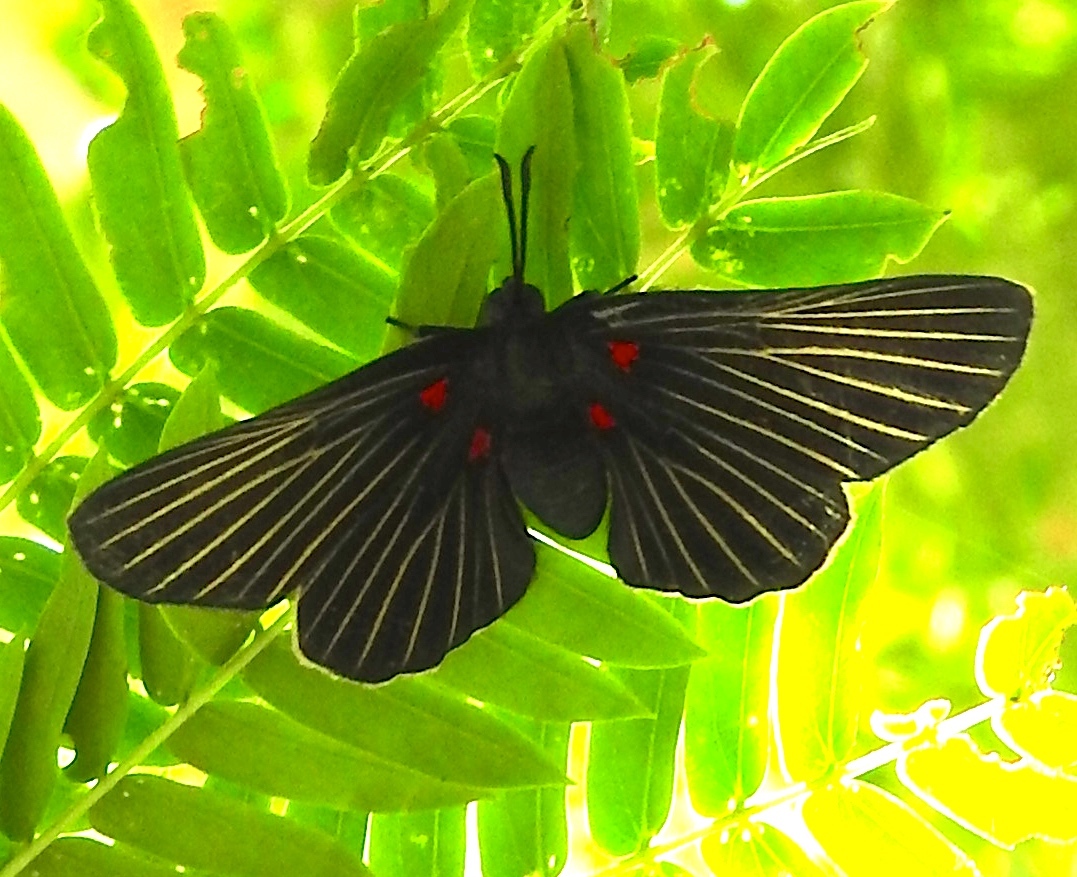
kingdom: Animalia
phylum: Arthropoda
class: Insecta
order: Lepidoptera
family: Lycaenidae
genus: Melanis
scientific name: Melanis
